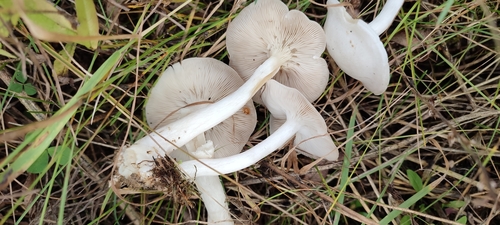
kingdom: Fungi
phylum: Basidiomycota
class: Agaricomycetes
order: Agaricales
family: Tricholomataceae
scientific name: Tricholomataceae
